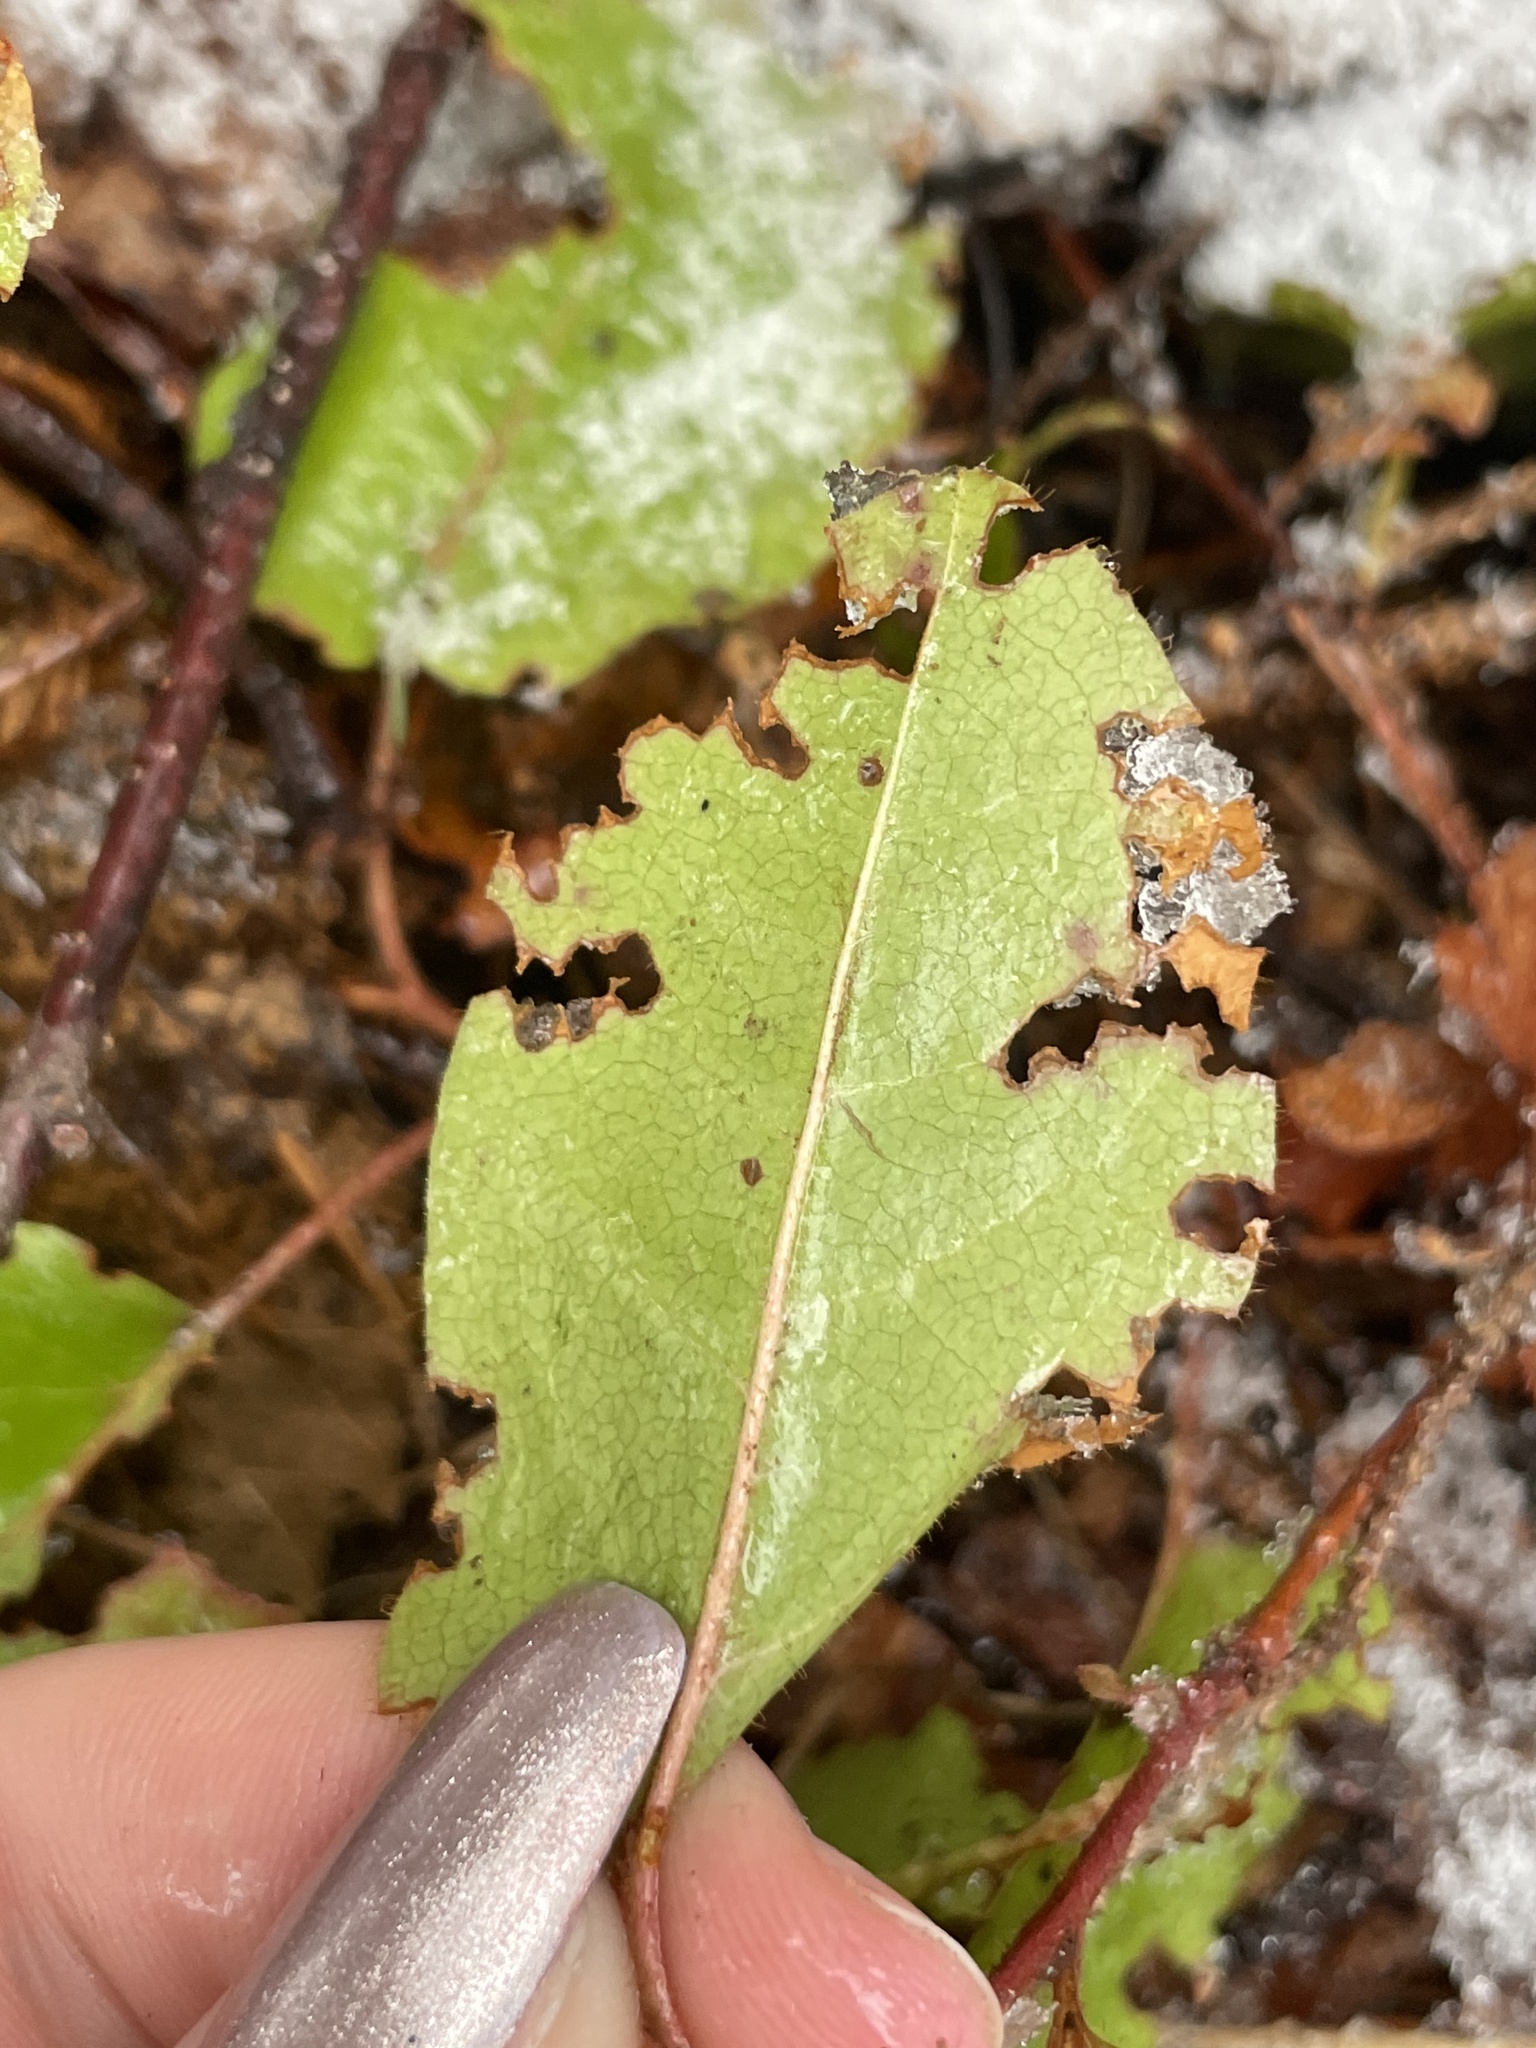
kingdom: Plantae
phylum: Tracheophyta
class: Magnoliopsida
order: Ericales
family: Ericaceae
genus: Epigaea
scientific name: Epigaea repens
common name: Gravelroot
